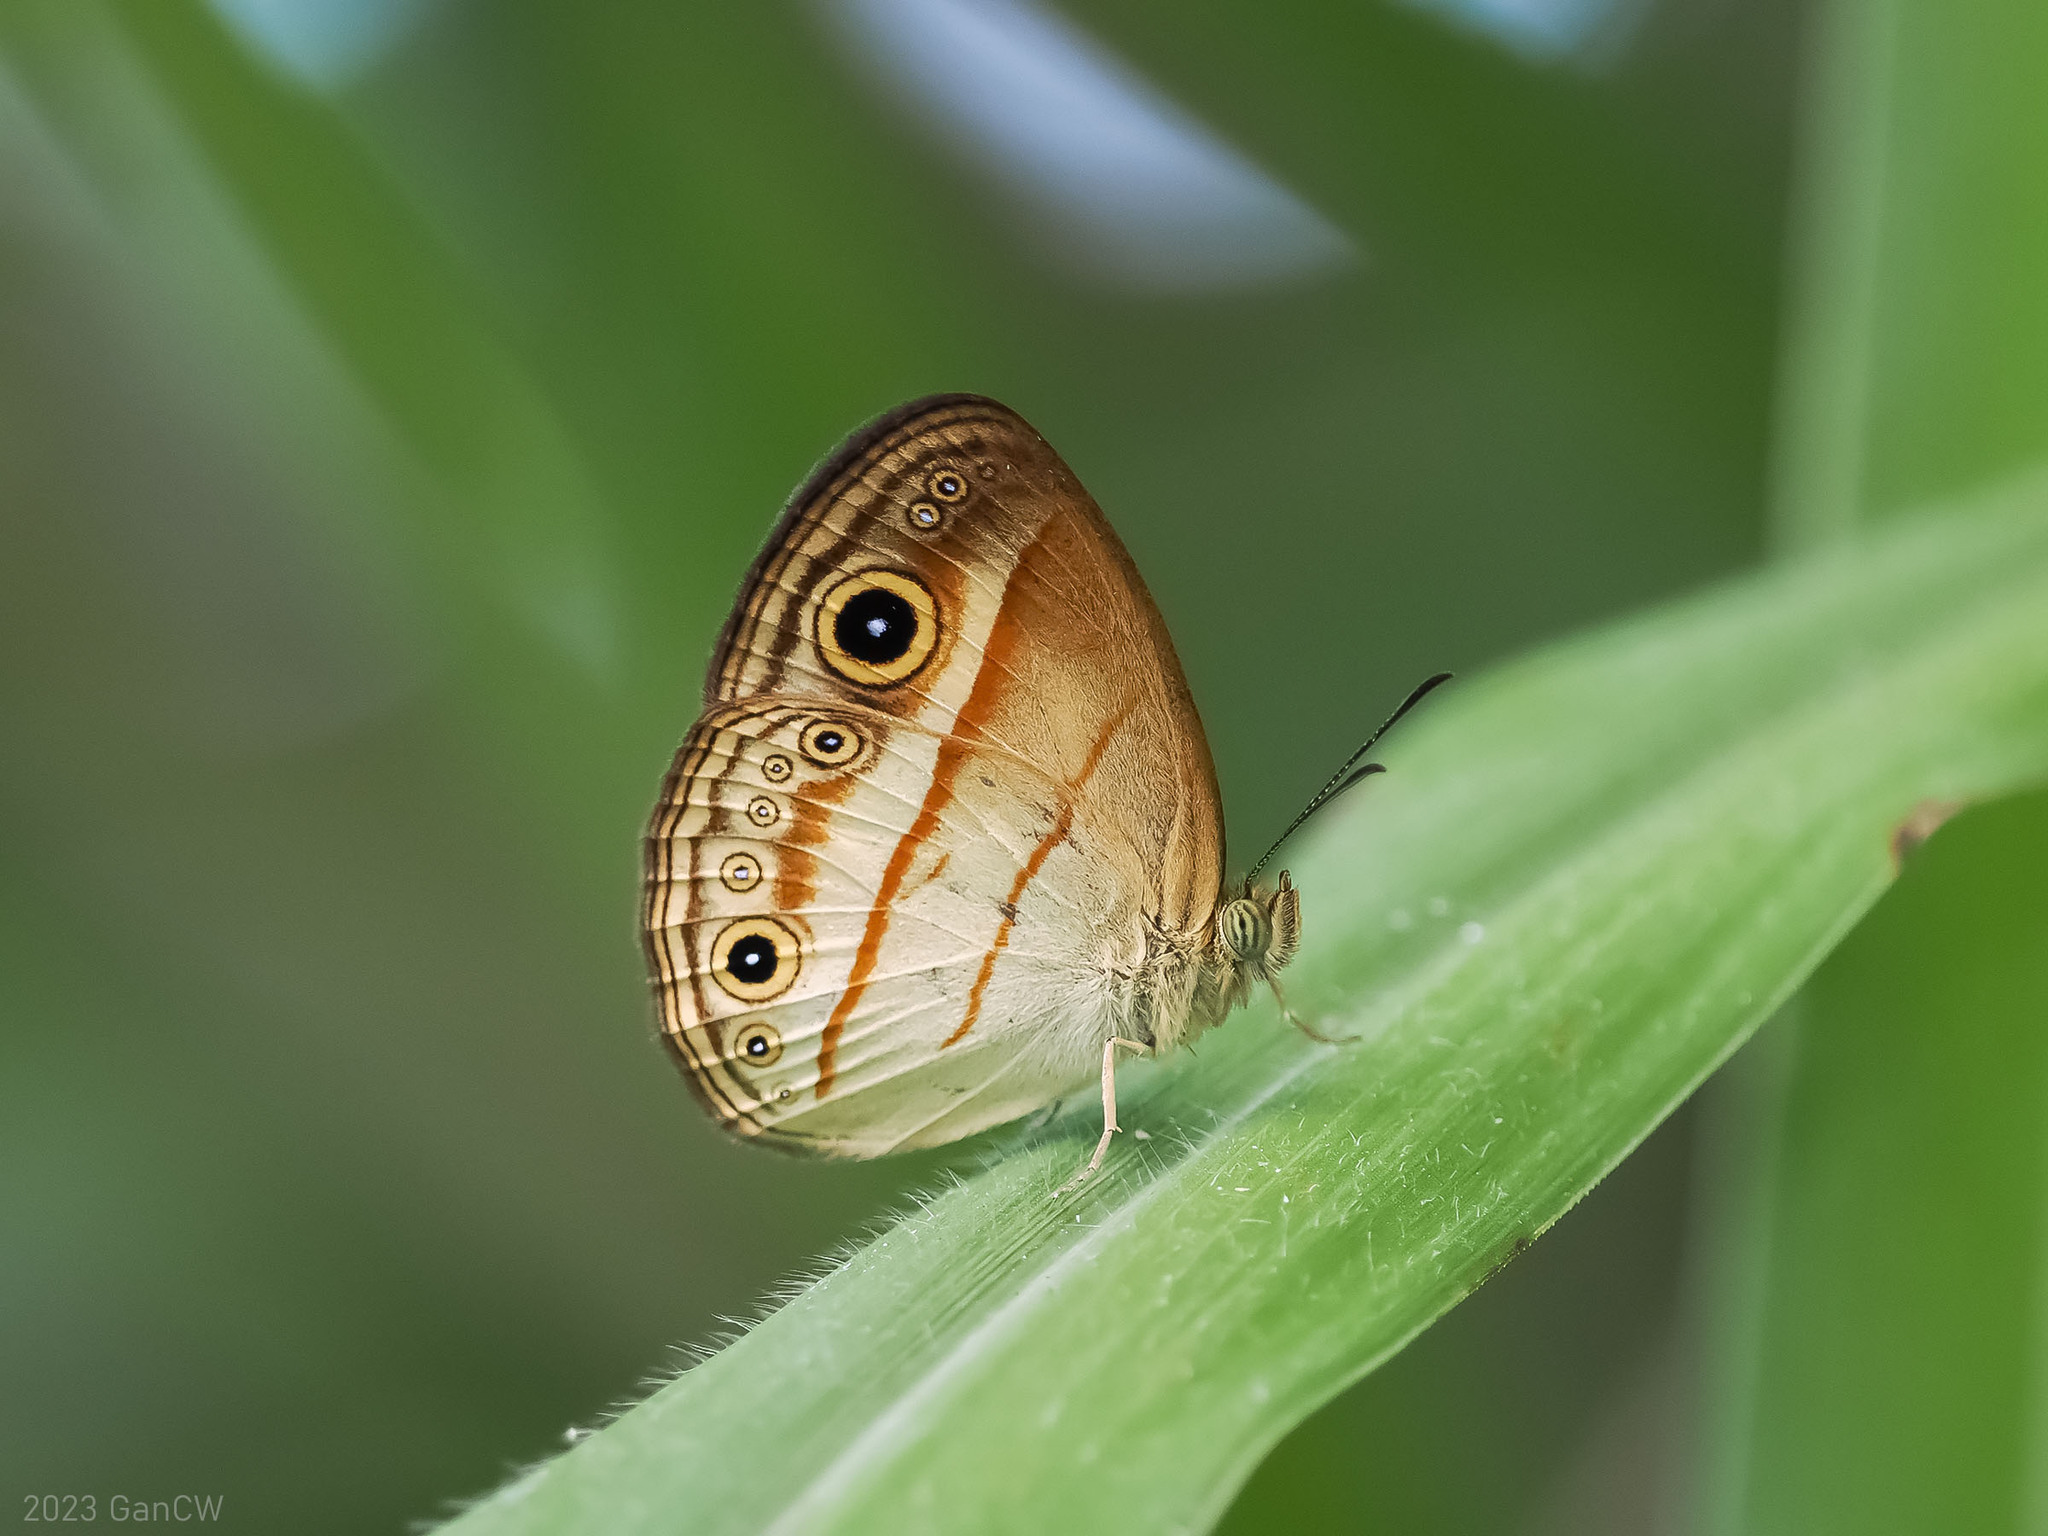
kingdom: Animalia
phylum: Arthropoda
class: Insecta
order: Lepidoptera
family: Nymphalidae
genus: Mycalesis
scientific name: Mycalesis ita
